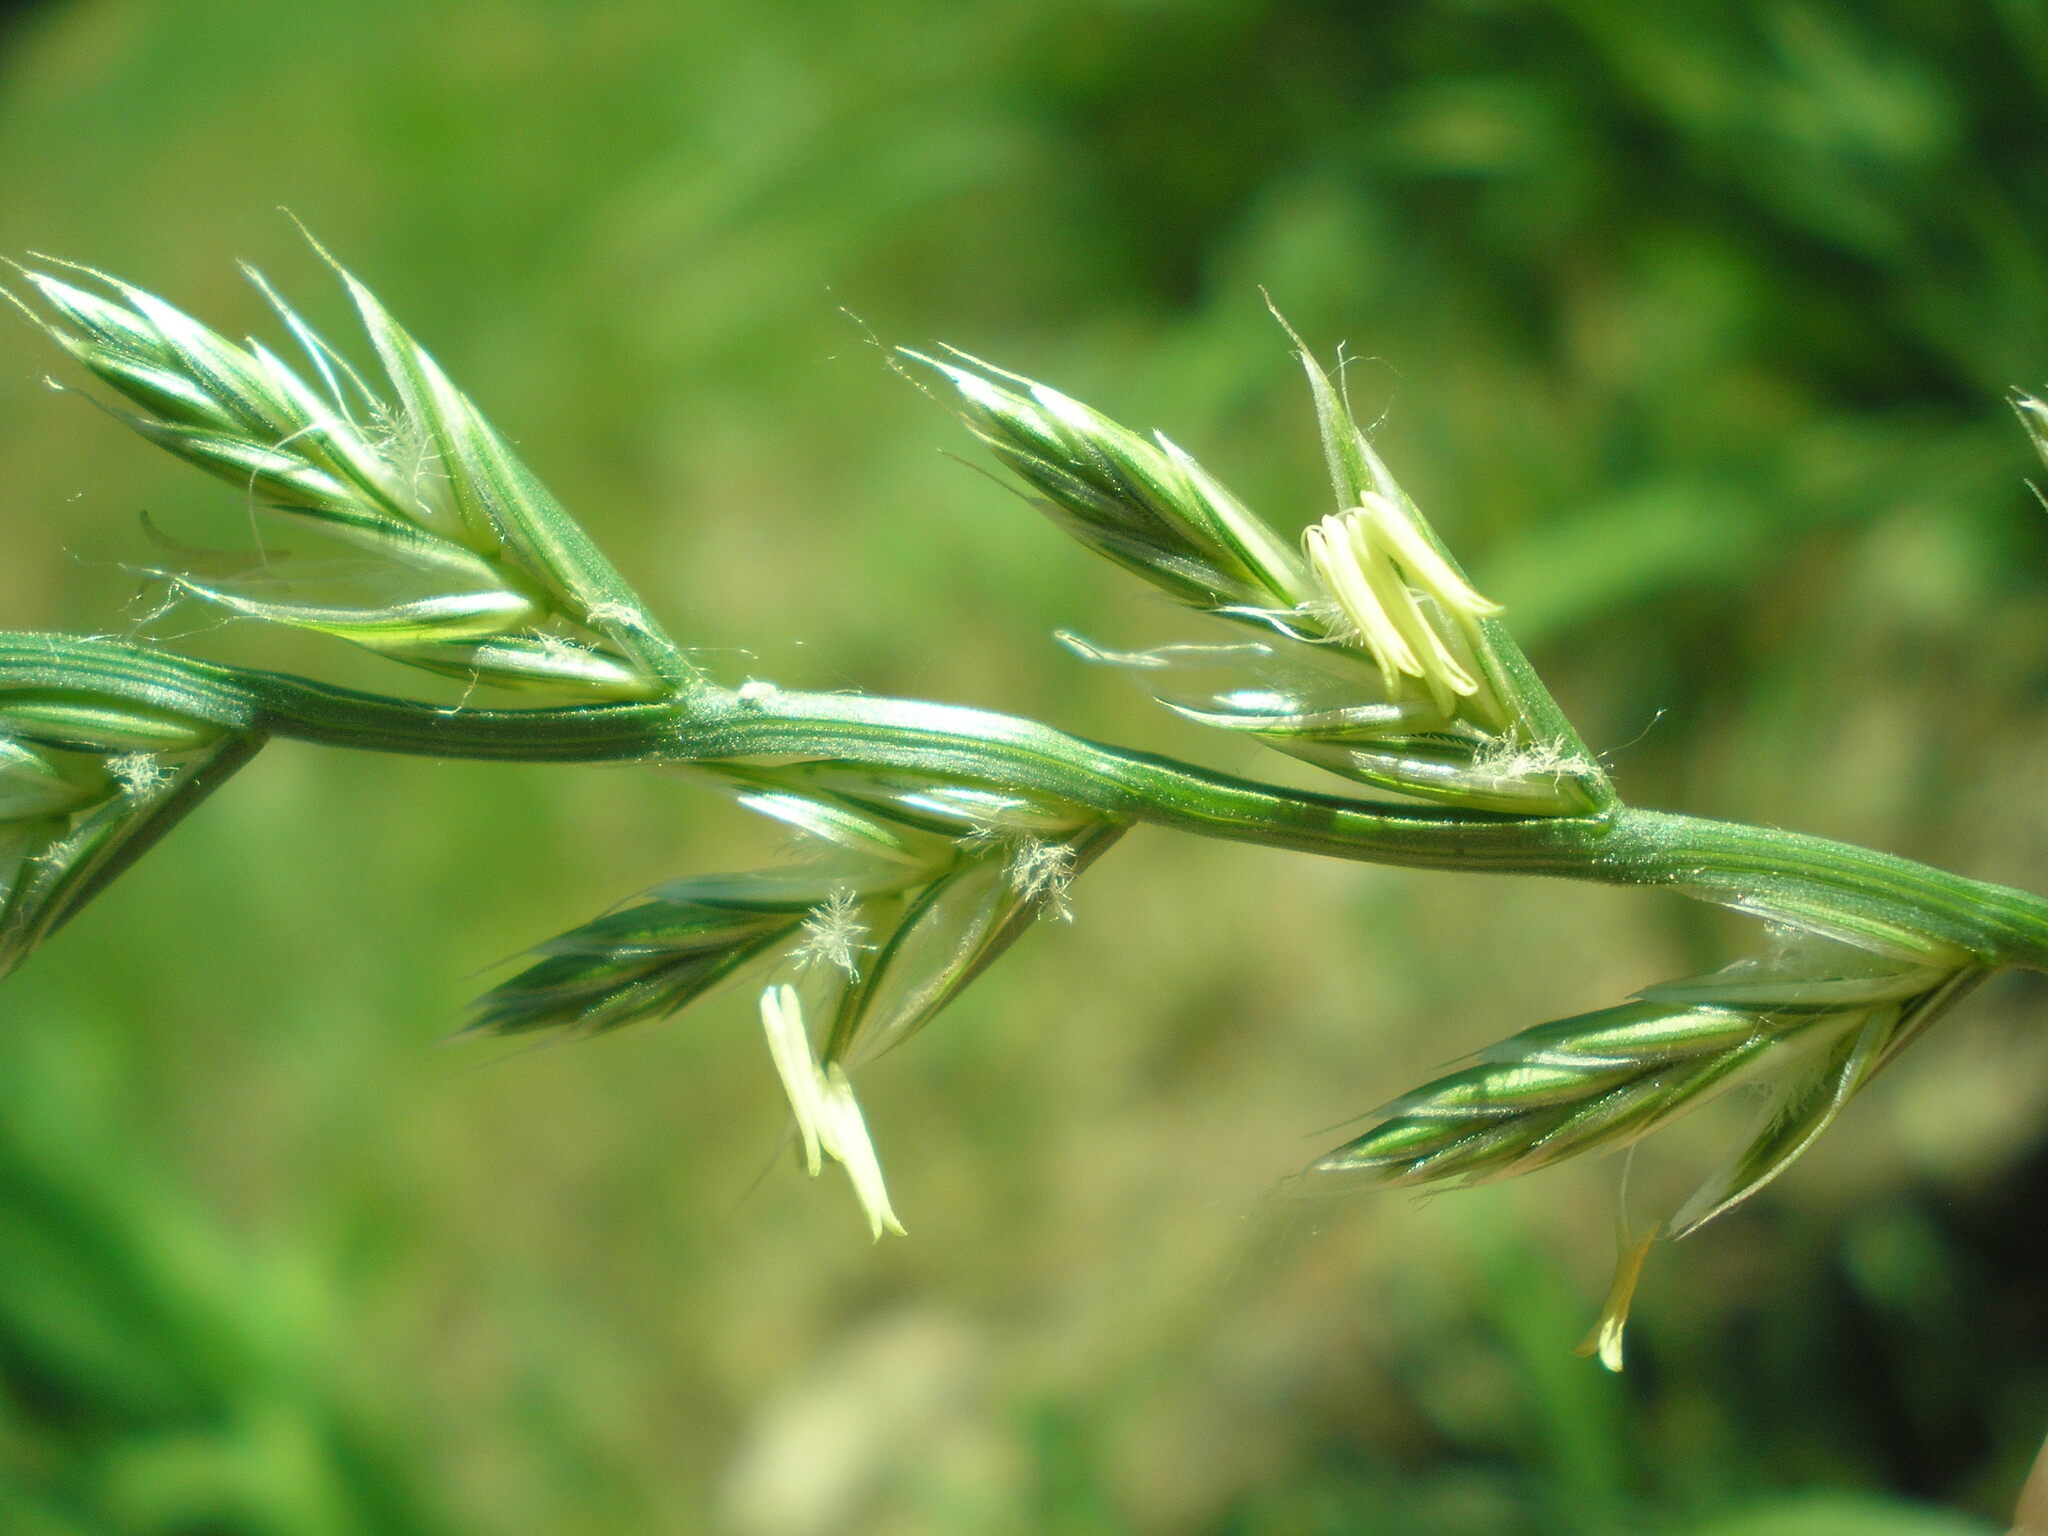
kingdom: Plantae
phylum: Tracheophyta
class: Liliopsida
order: Poales
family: Poaceae
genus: Lolium
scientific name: Lolium multiflorum
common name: Annual ryegrass
